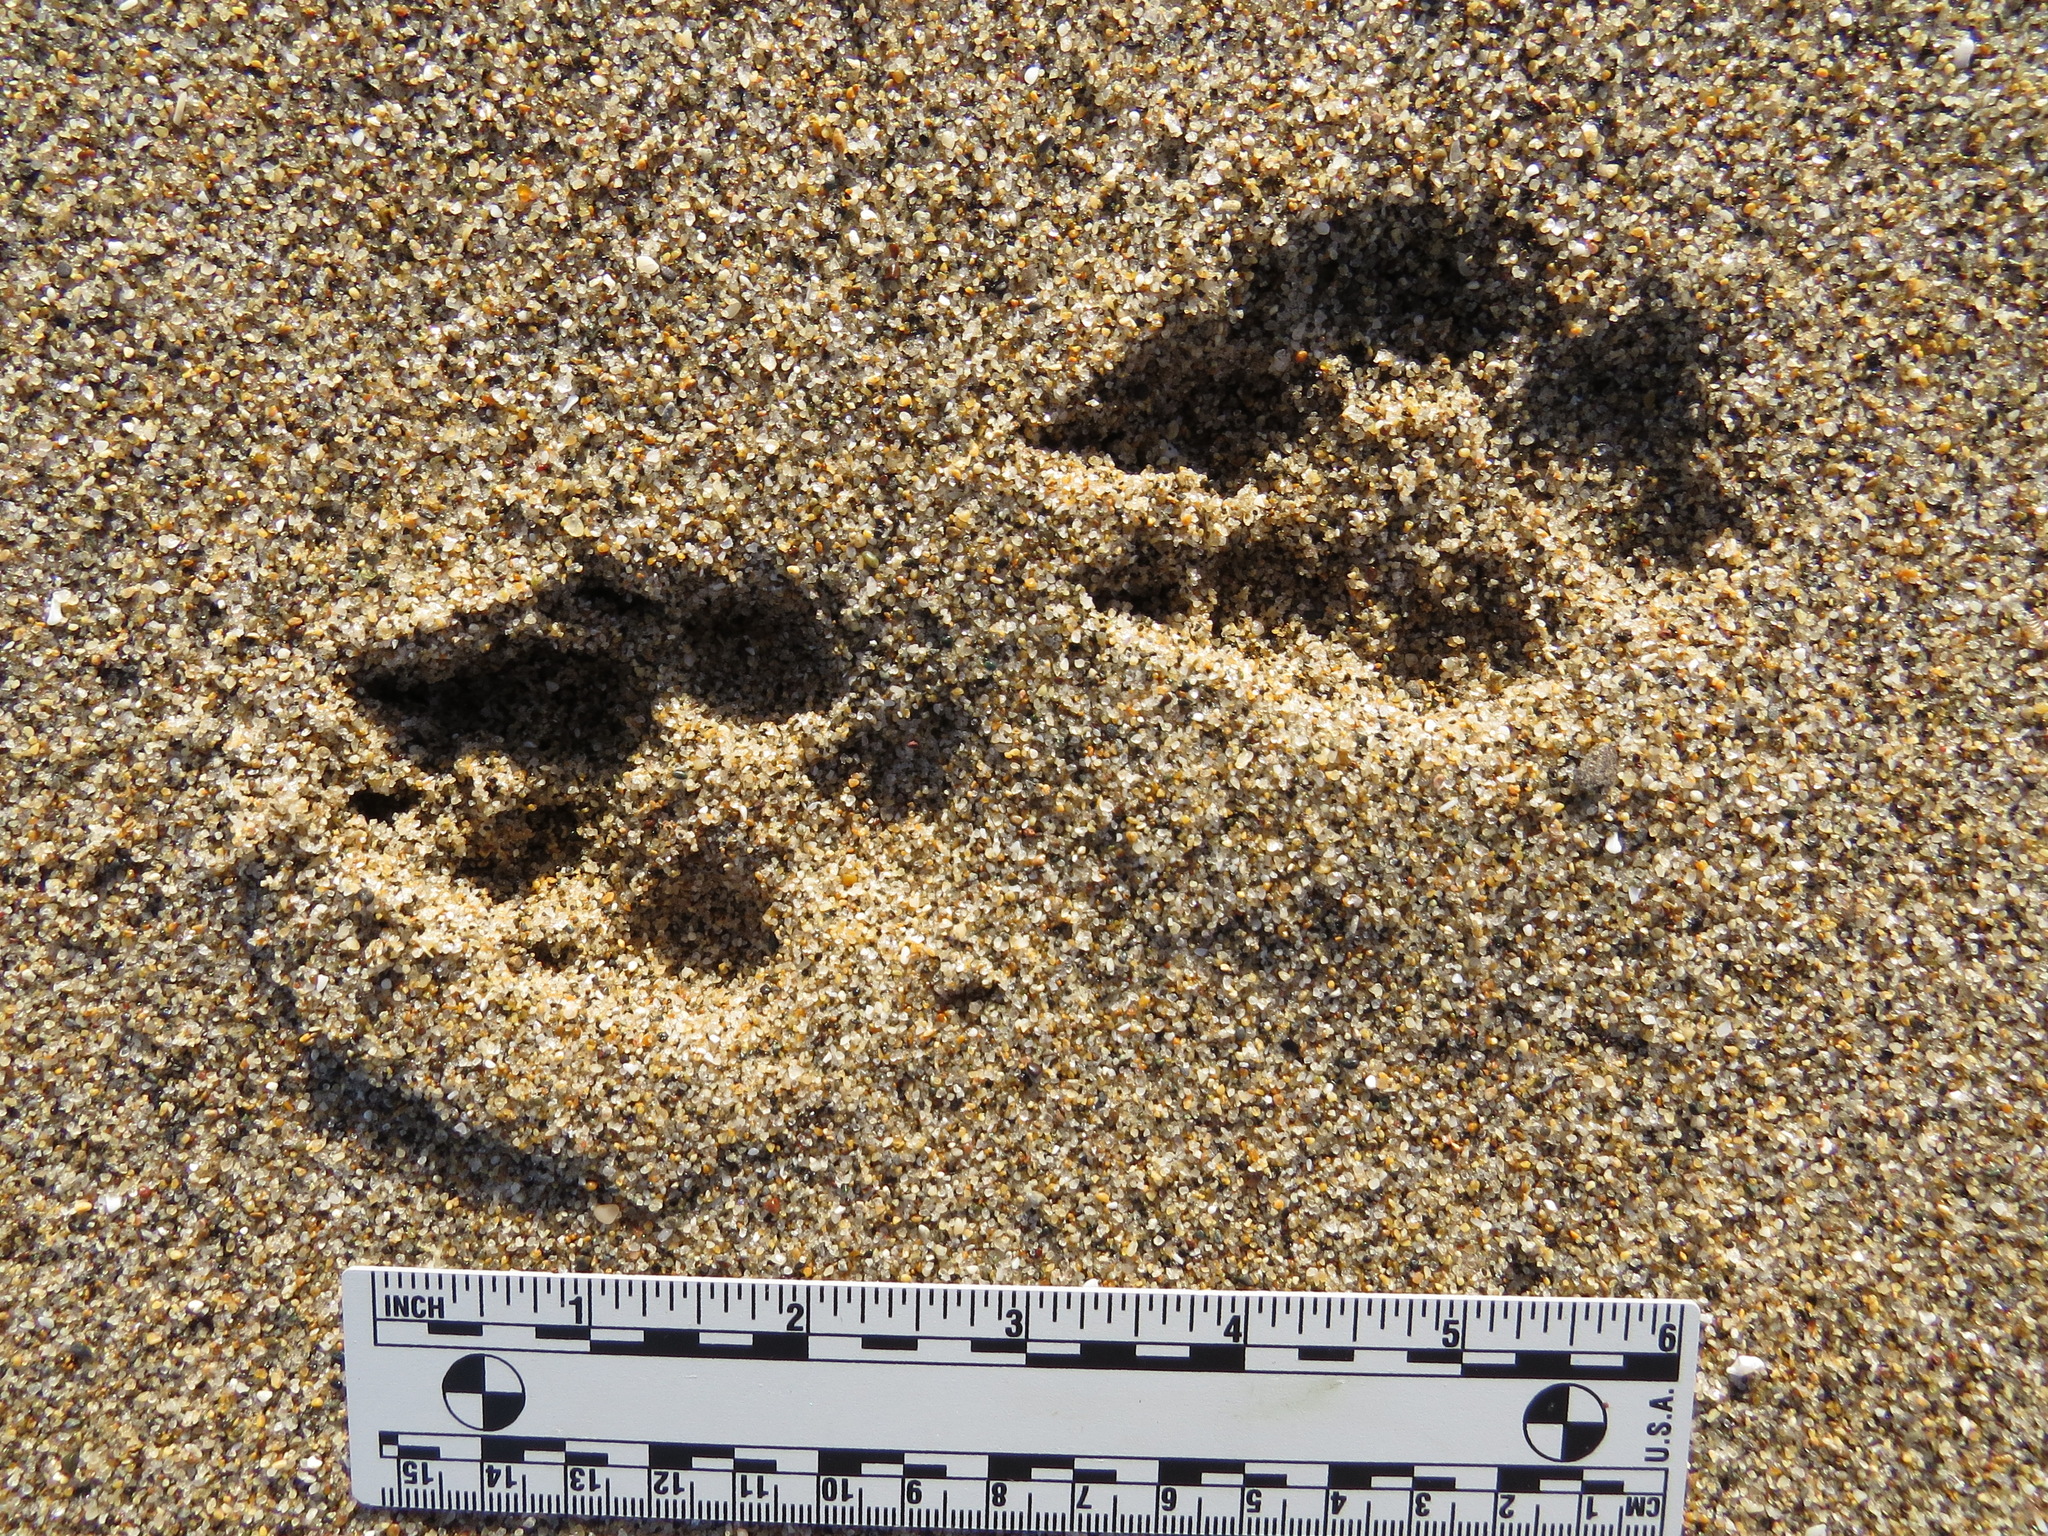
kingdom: Animalia
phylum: Chordata
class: Mammalia
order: Carnivora
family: Canidae
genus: Canis
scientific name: Canis latrans
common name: Coyote
